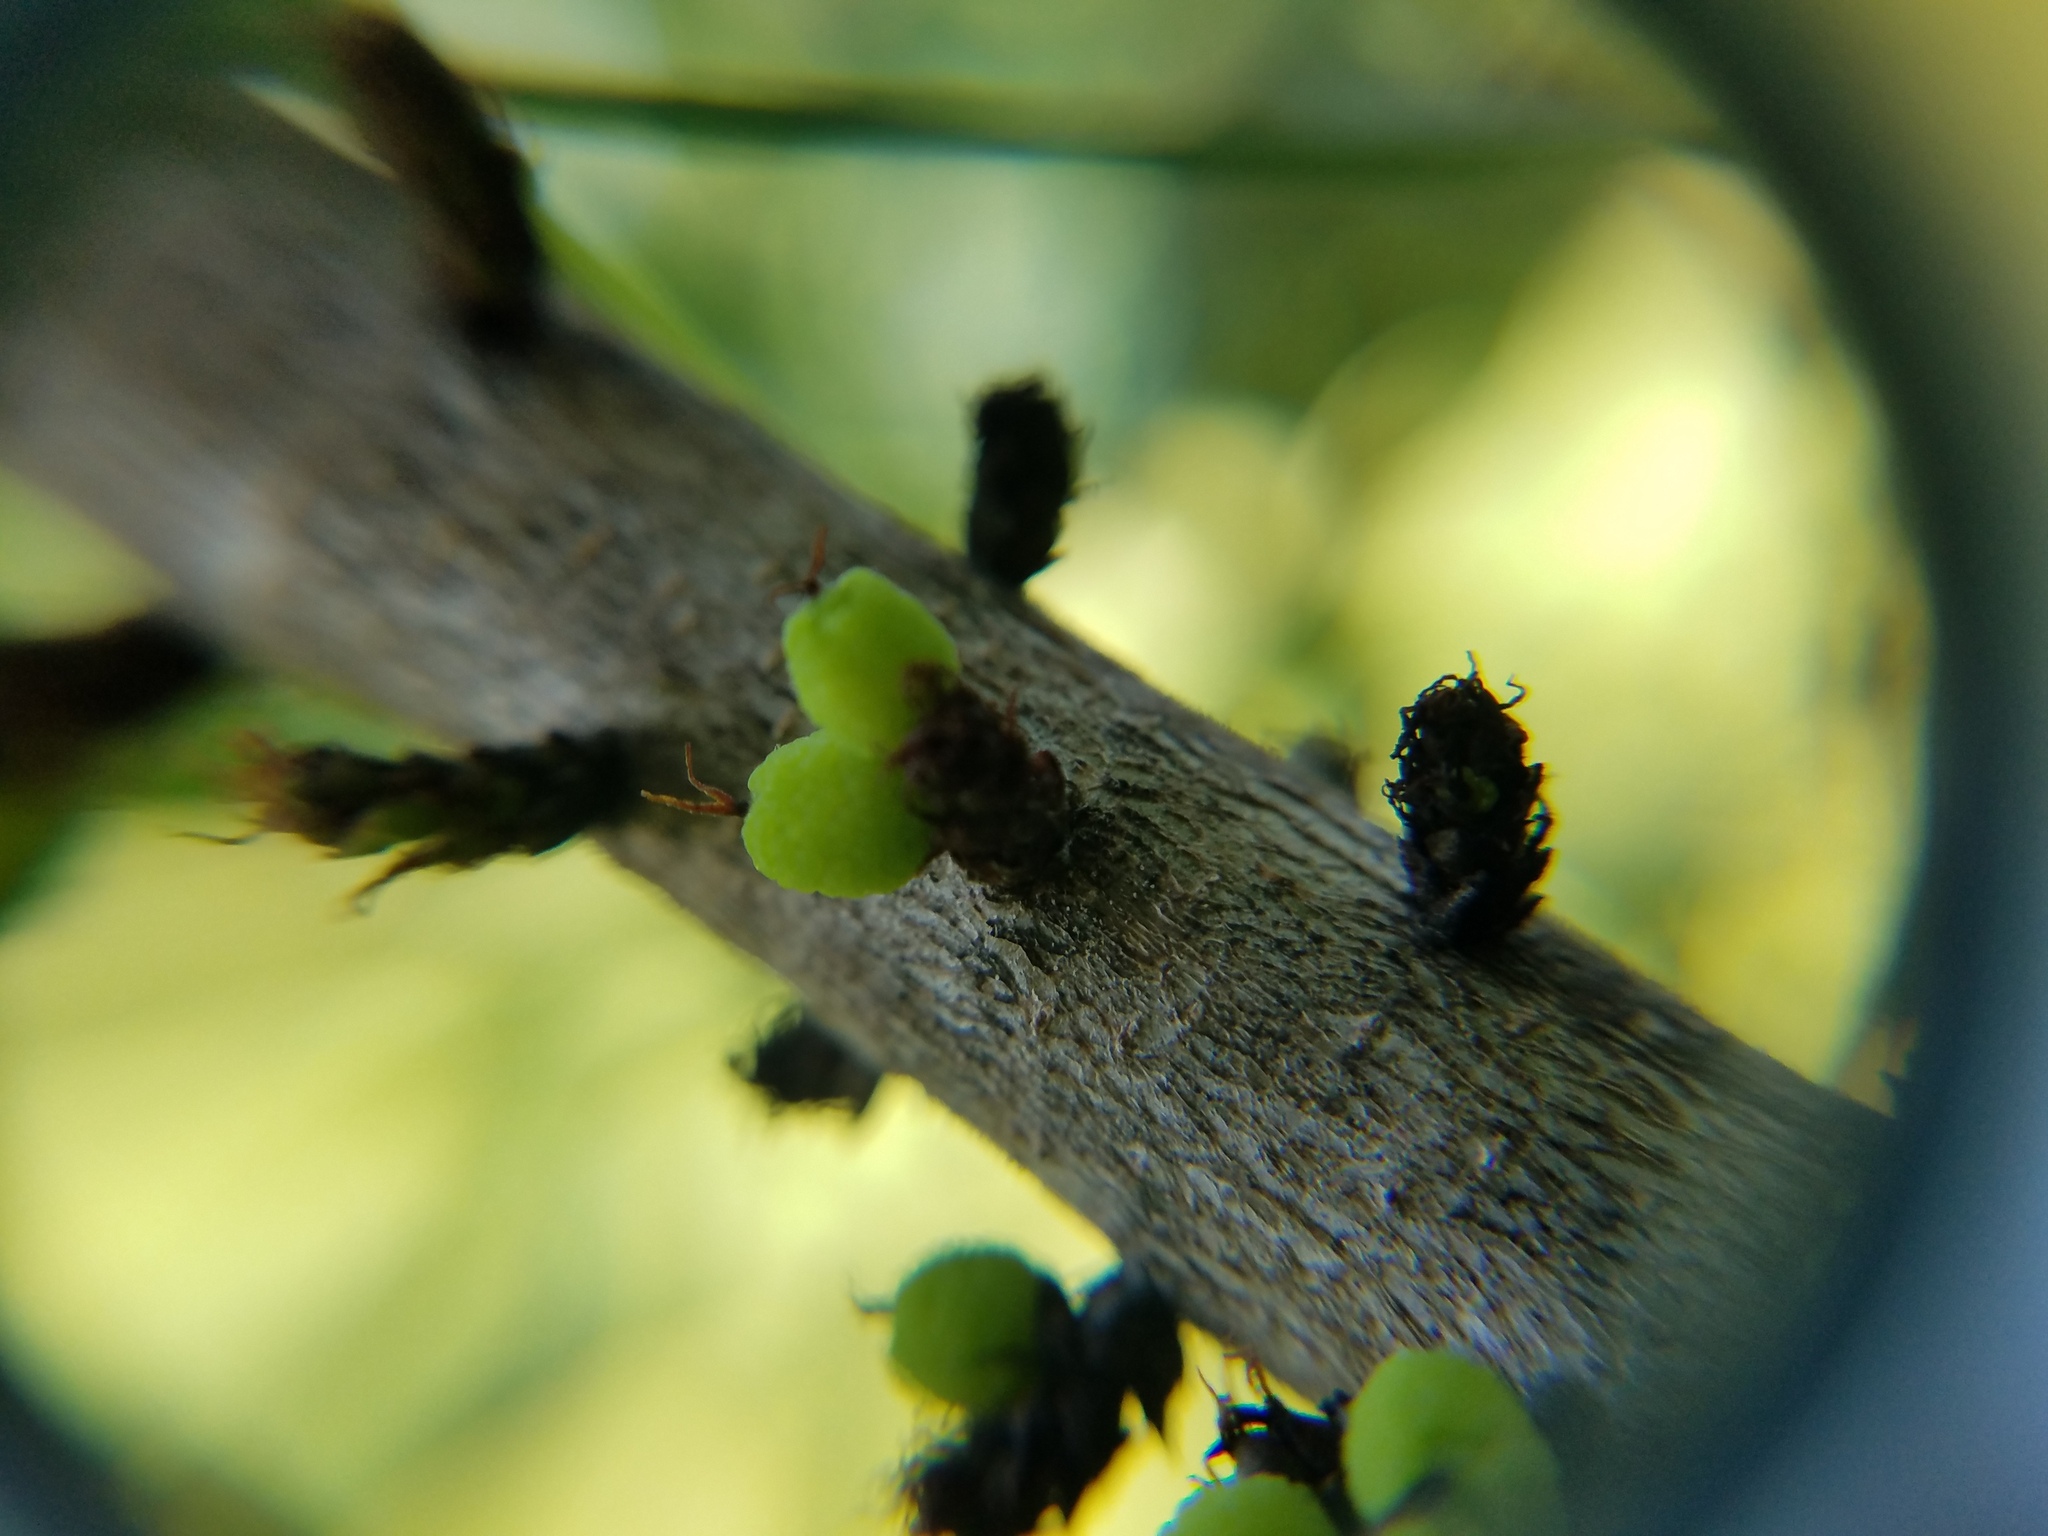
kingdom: Plantae
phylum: Tracheophyta
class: Magnoliopsida
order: Fagales
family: Myricaceae
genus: Morella
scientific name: Morella caroliniensis
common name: Evergreen bayberry
